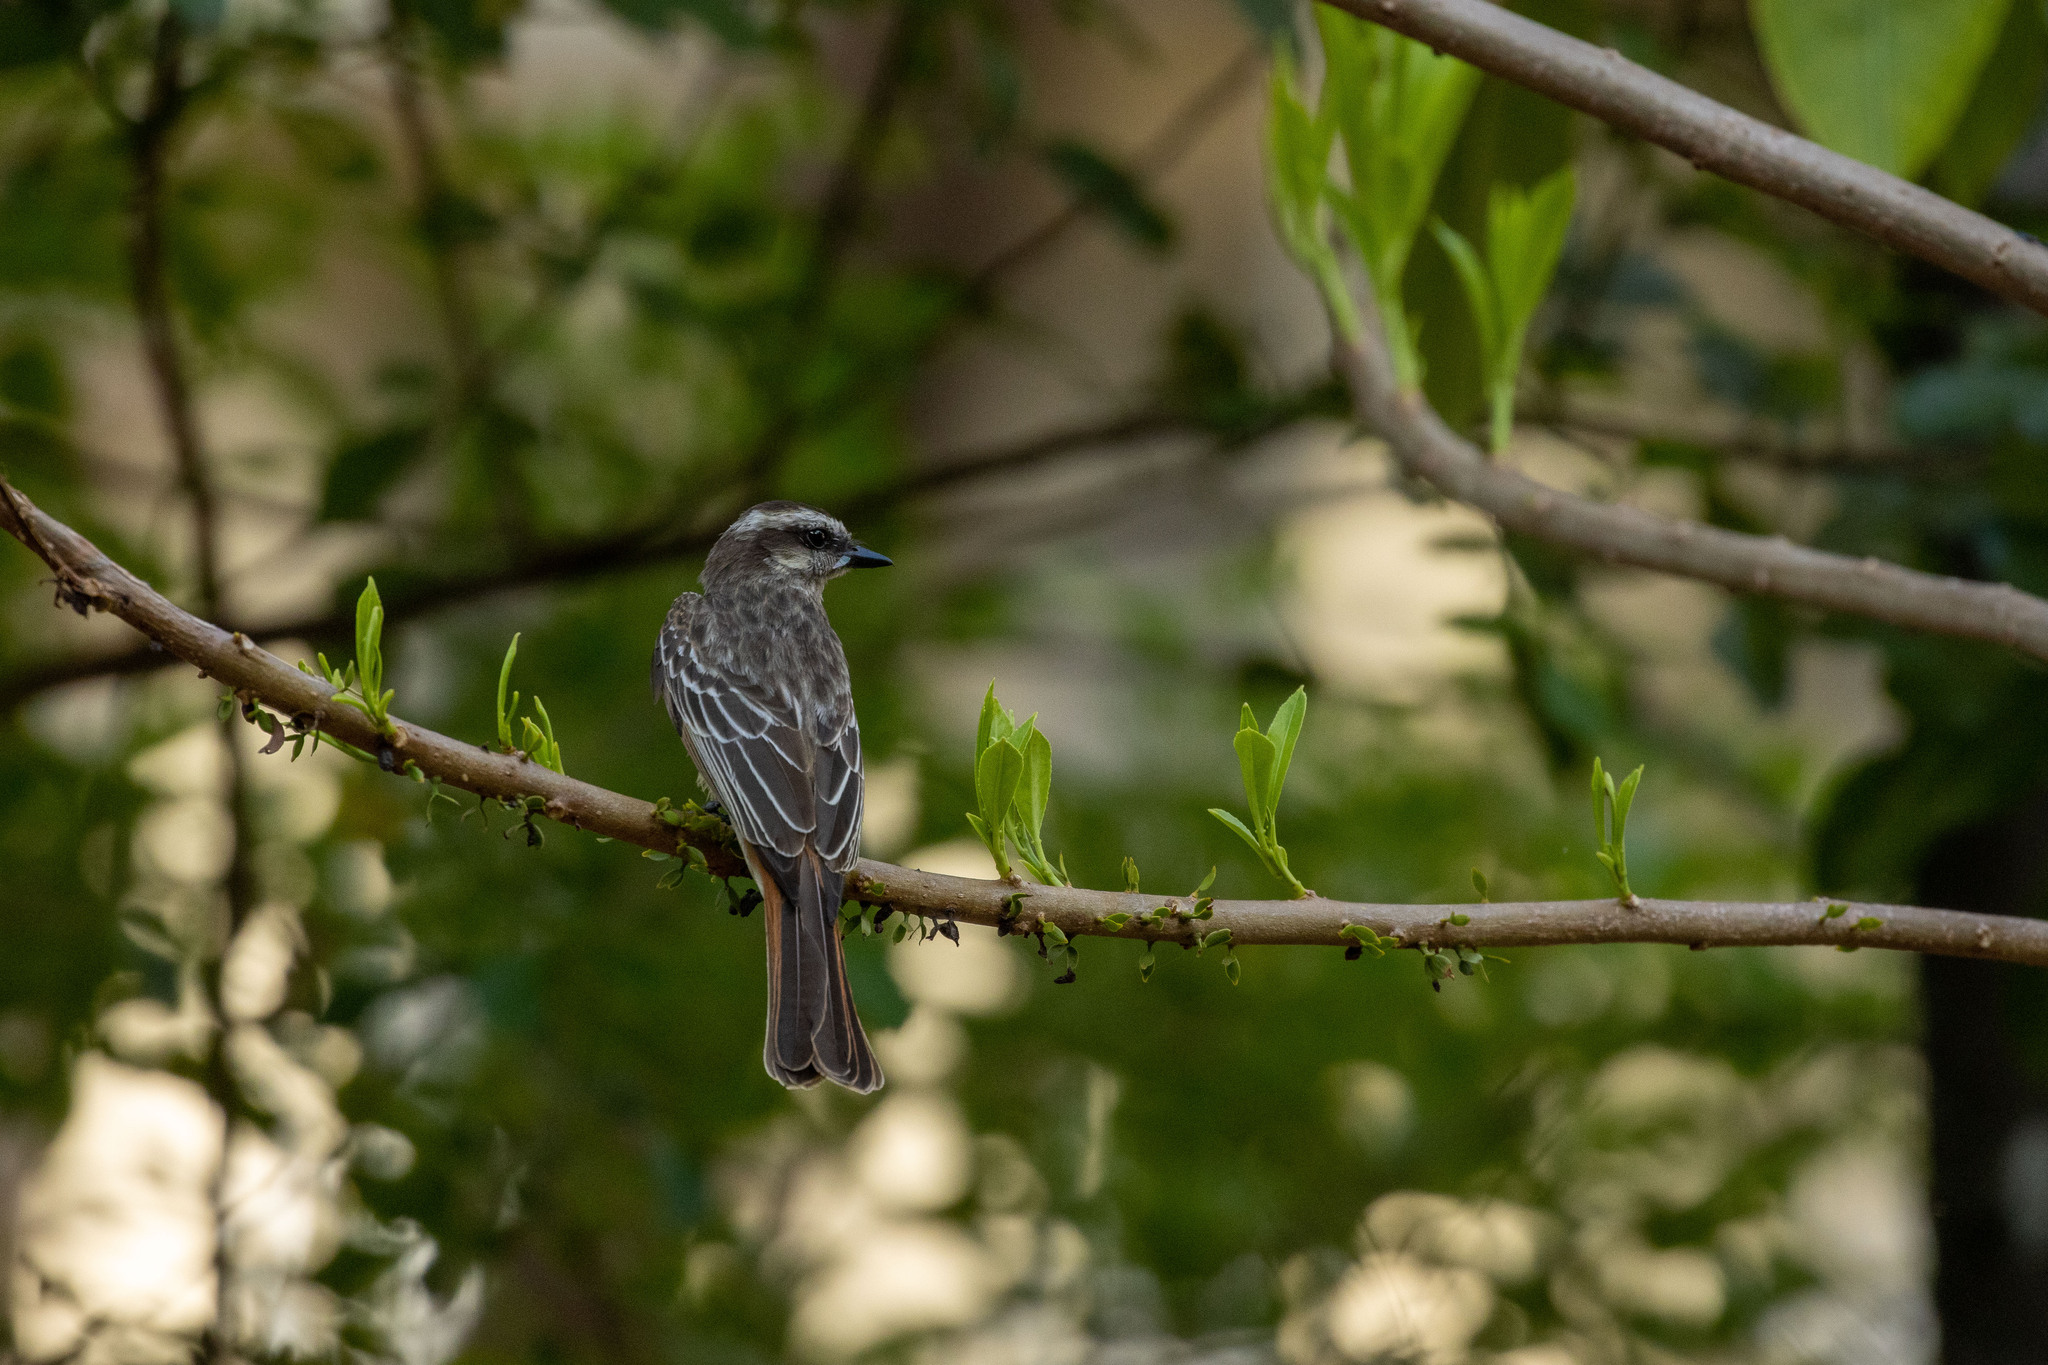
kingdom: Animalia
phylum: Chordata
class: Aves
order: Passeriformes
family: Tyrannidae
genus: Empidonomus
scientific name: Empidonomus varius
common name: Variegated flycatcher
